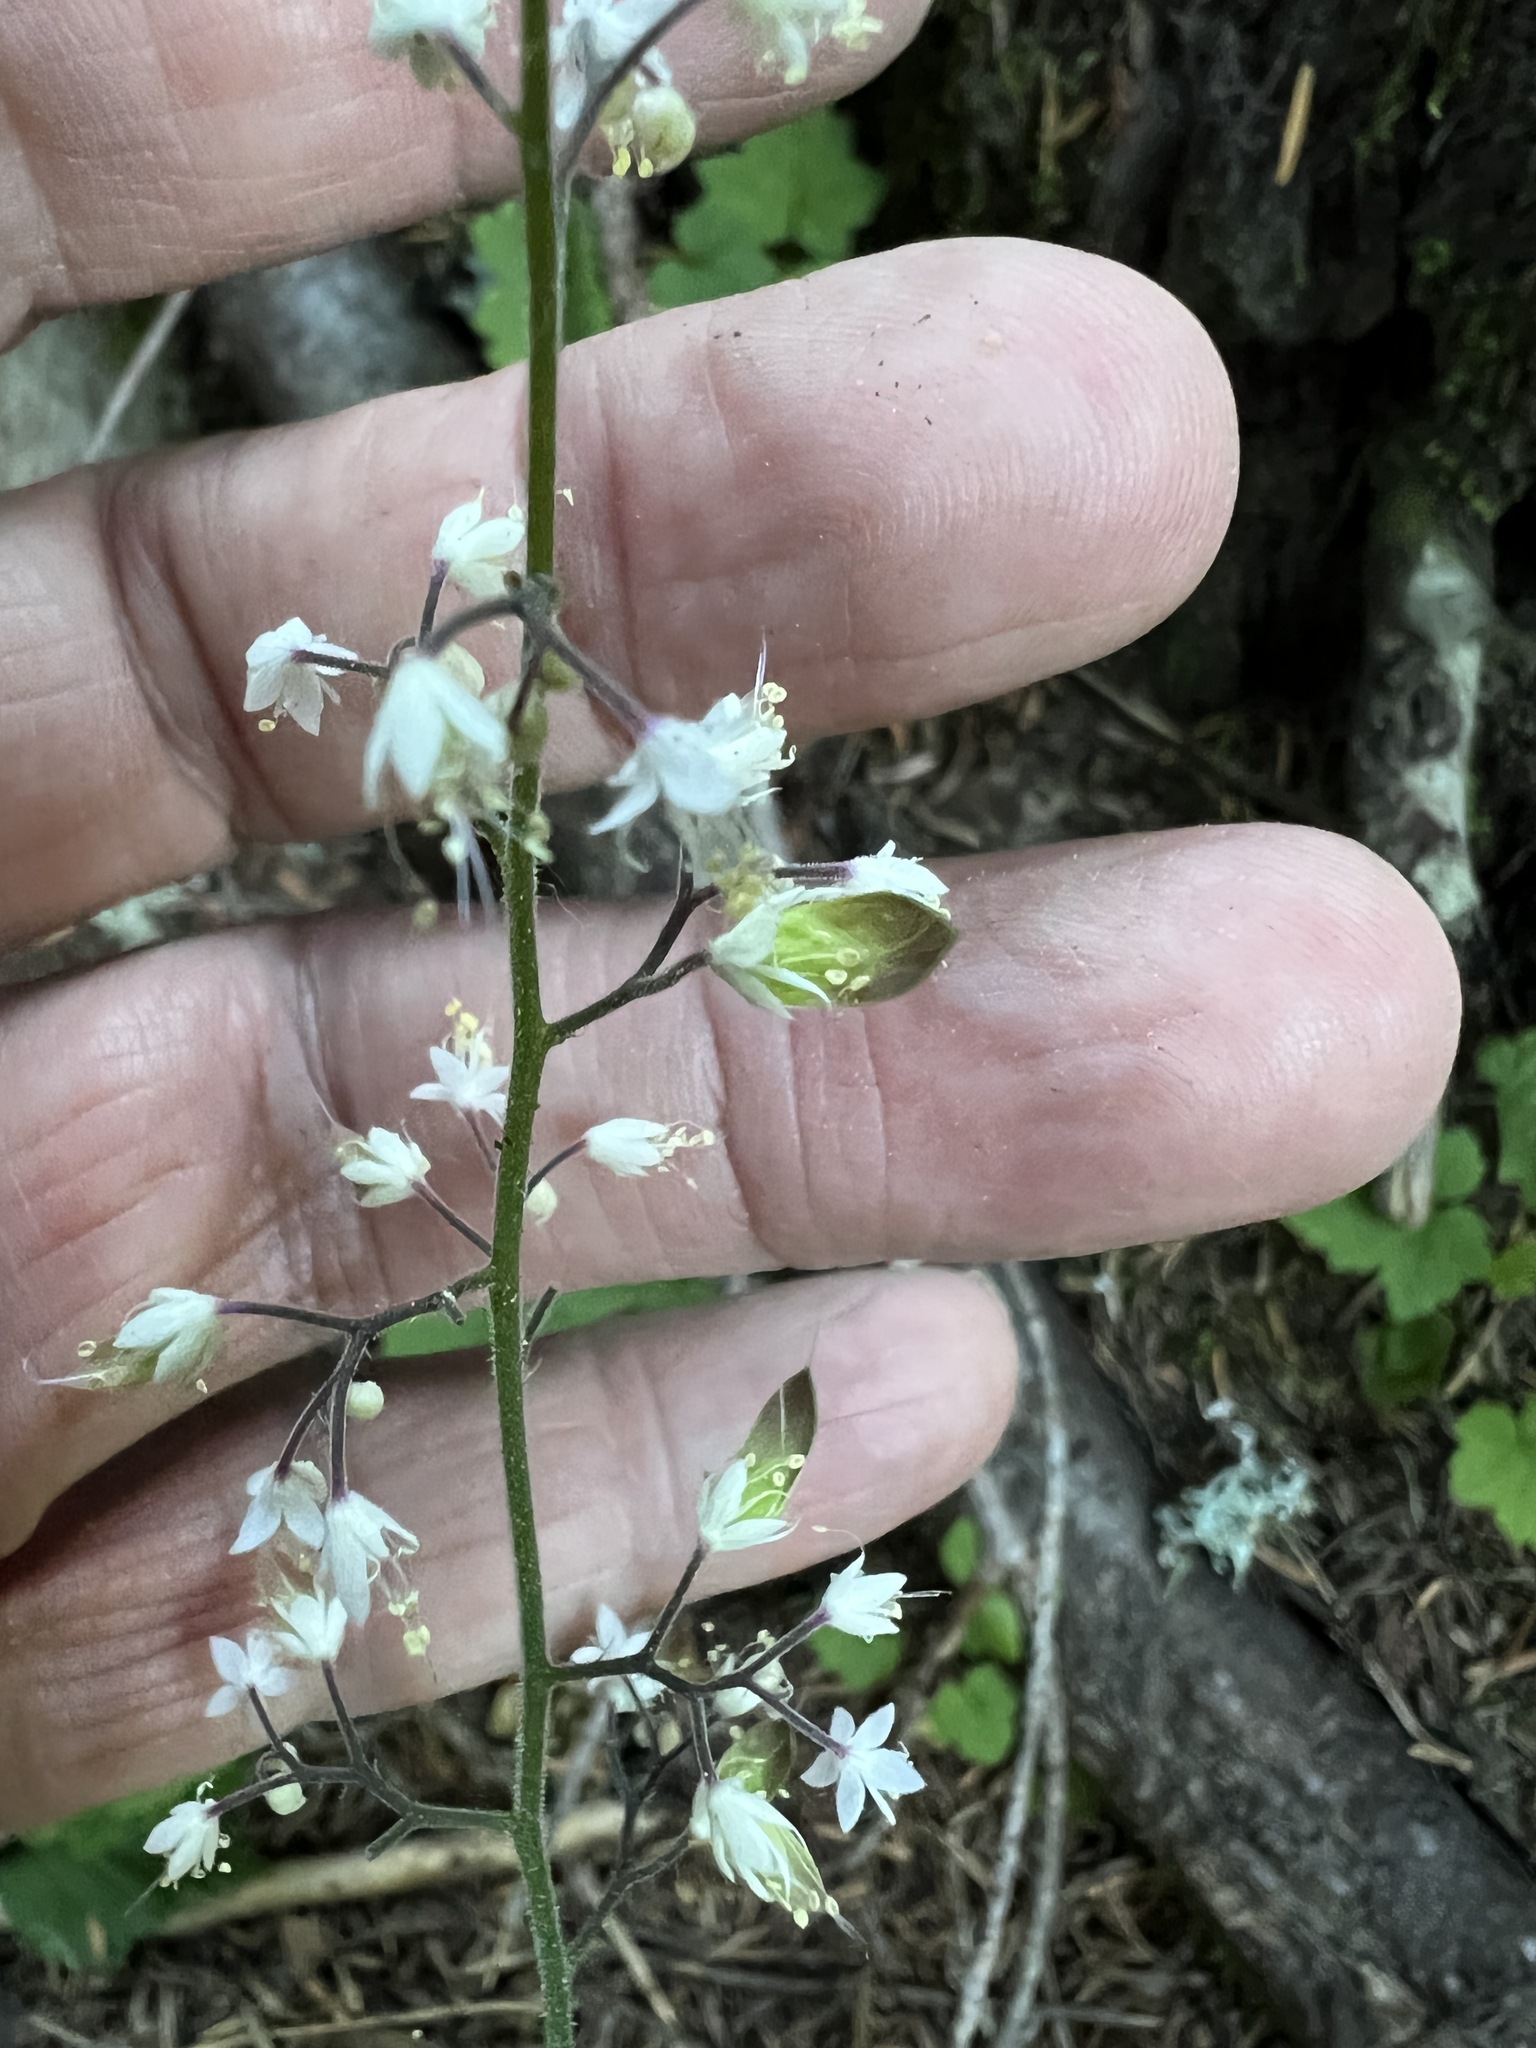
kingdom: Plantae
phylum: Tracheophyta
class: Magnoliopsida
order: Saxifragales
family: Saxifragaceae
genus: Tiarella
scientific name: Tiarella trifoliata
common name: Sugar-scoop
